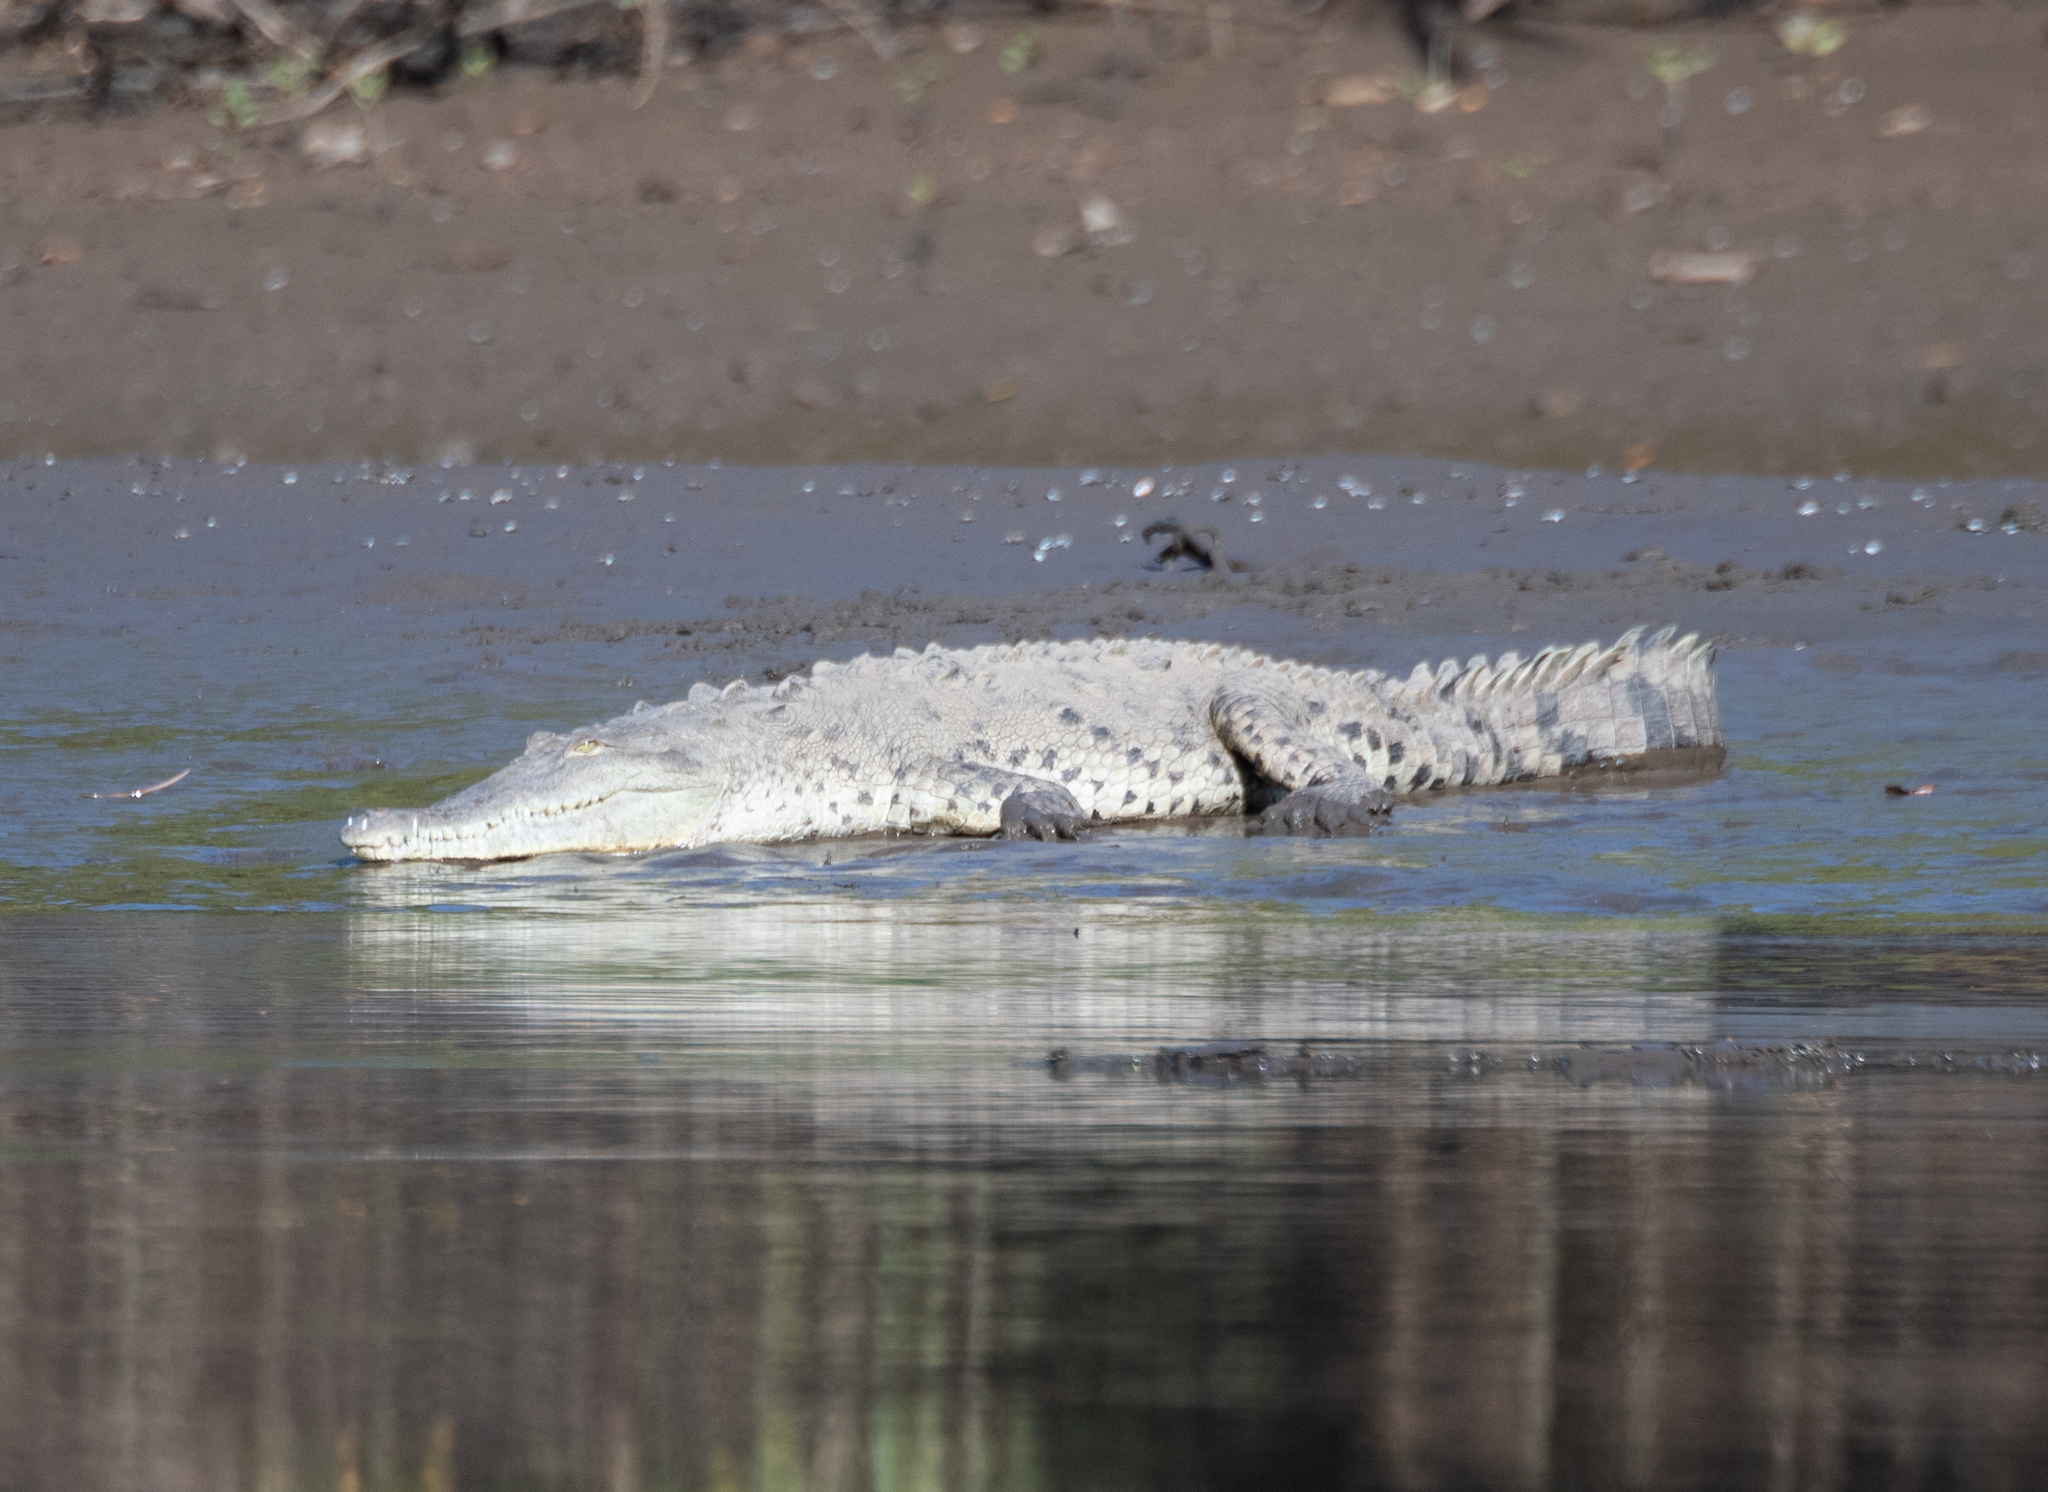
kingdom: Animalia
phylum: Chordata
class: Crocodylia
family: Crocodylidae
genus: Crocodylus
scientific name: Crocodylus acutus
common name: American crocodile
